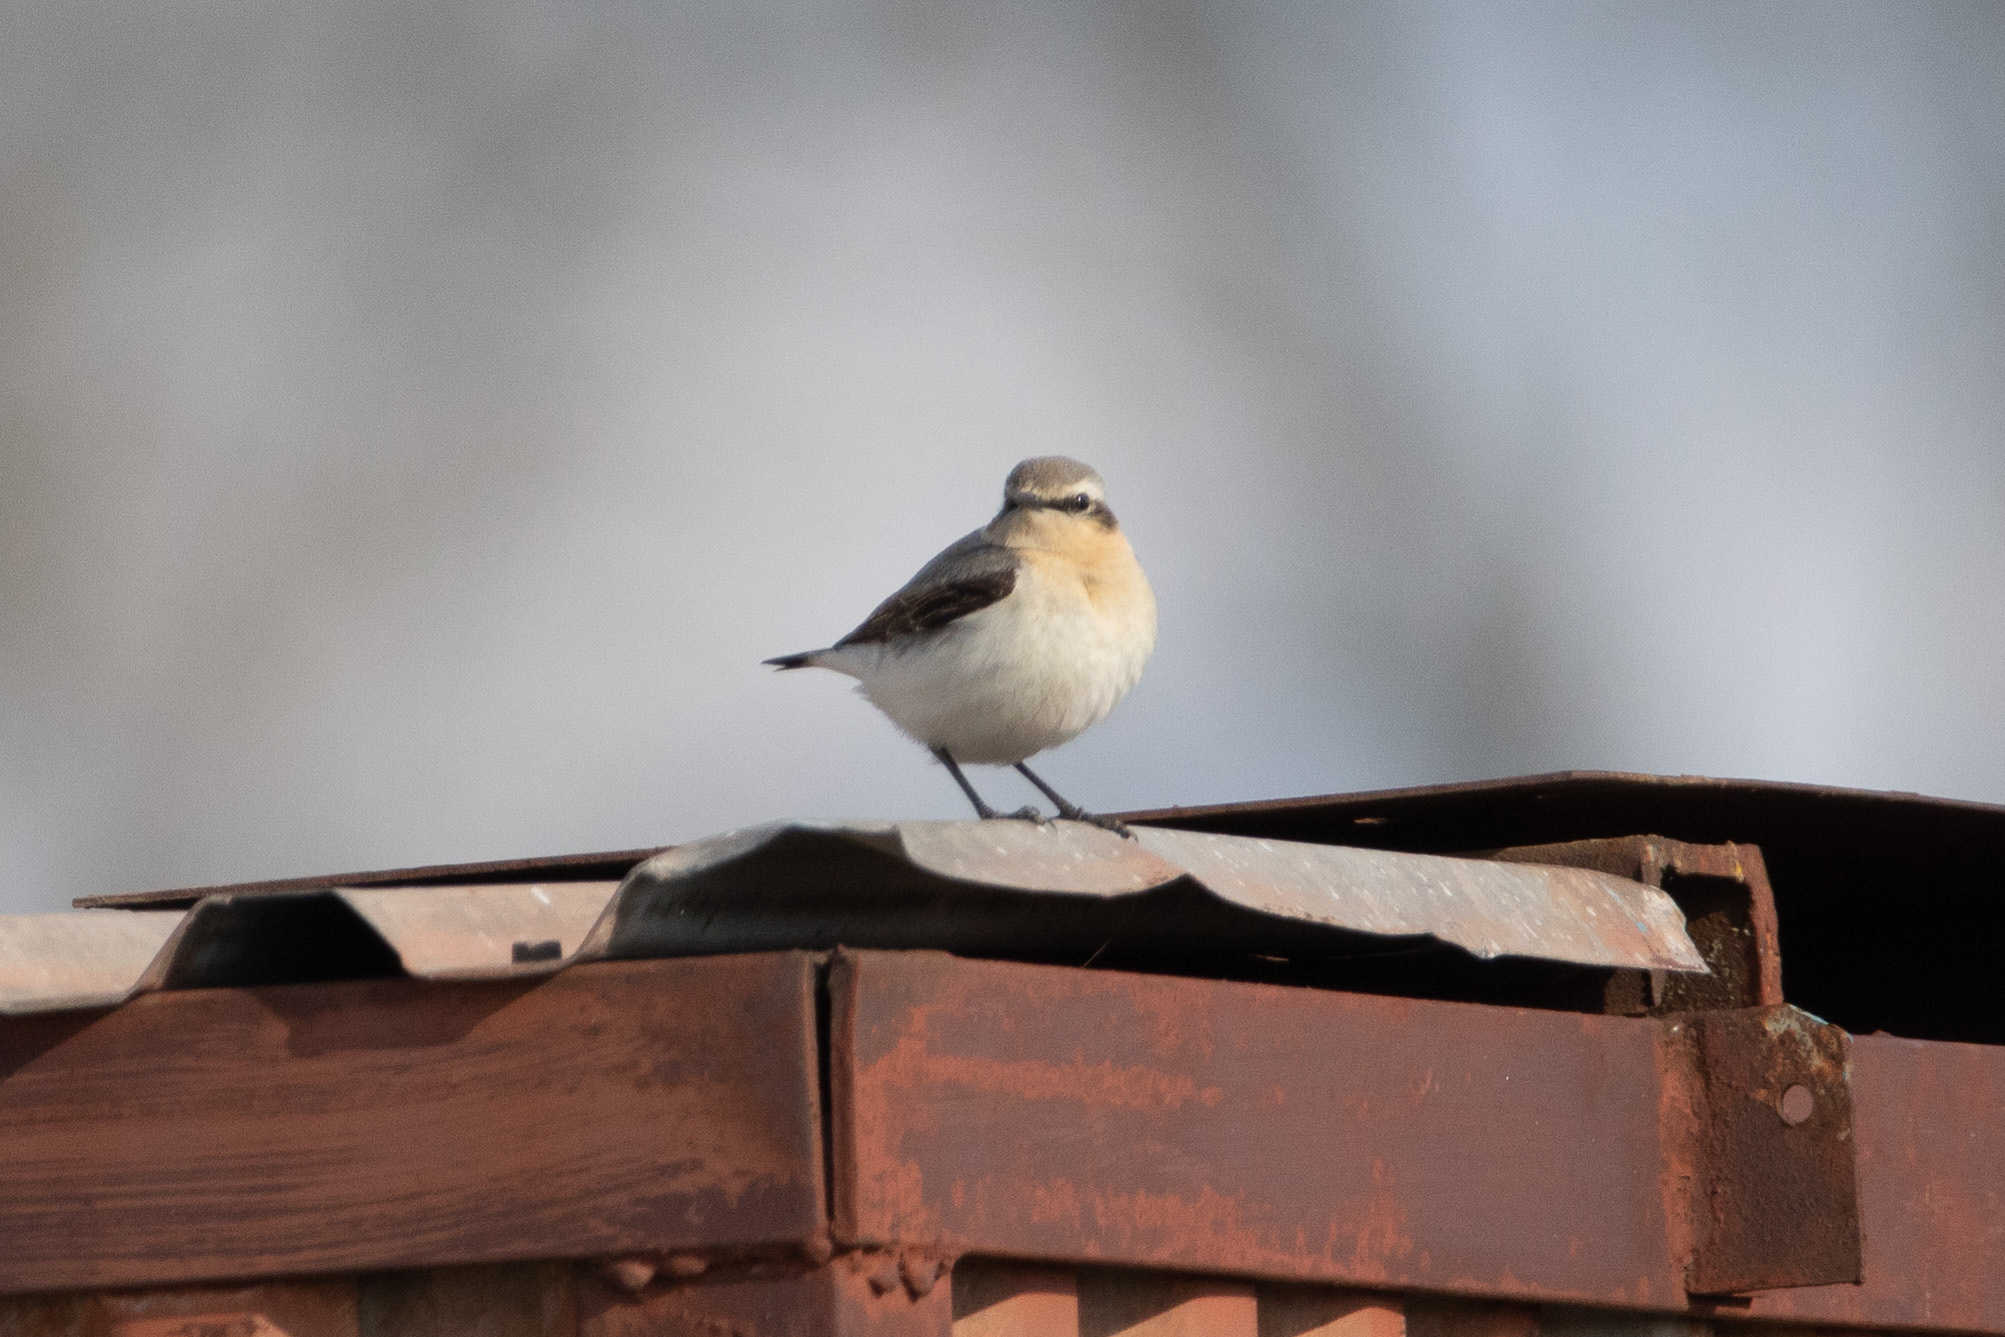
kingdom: Animalia
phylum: Chordata
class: Aves
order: Passeriformes
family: Muscicapidae
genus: Oenanthe
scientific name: Oenanthe oenanthe
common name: Northern wheatear
